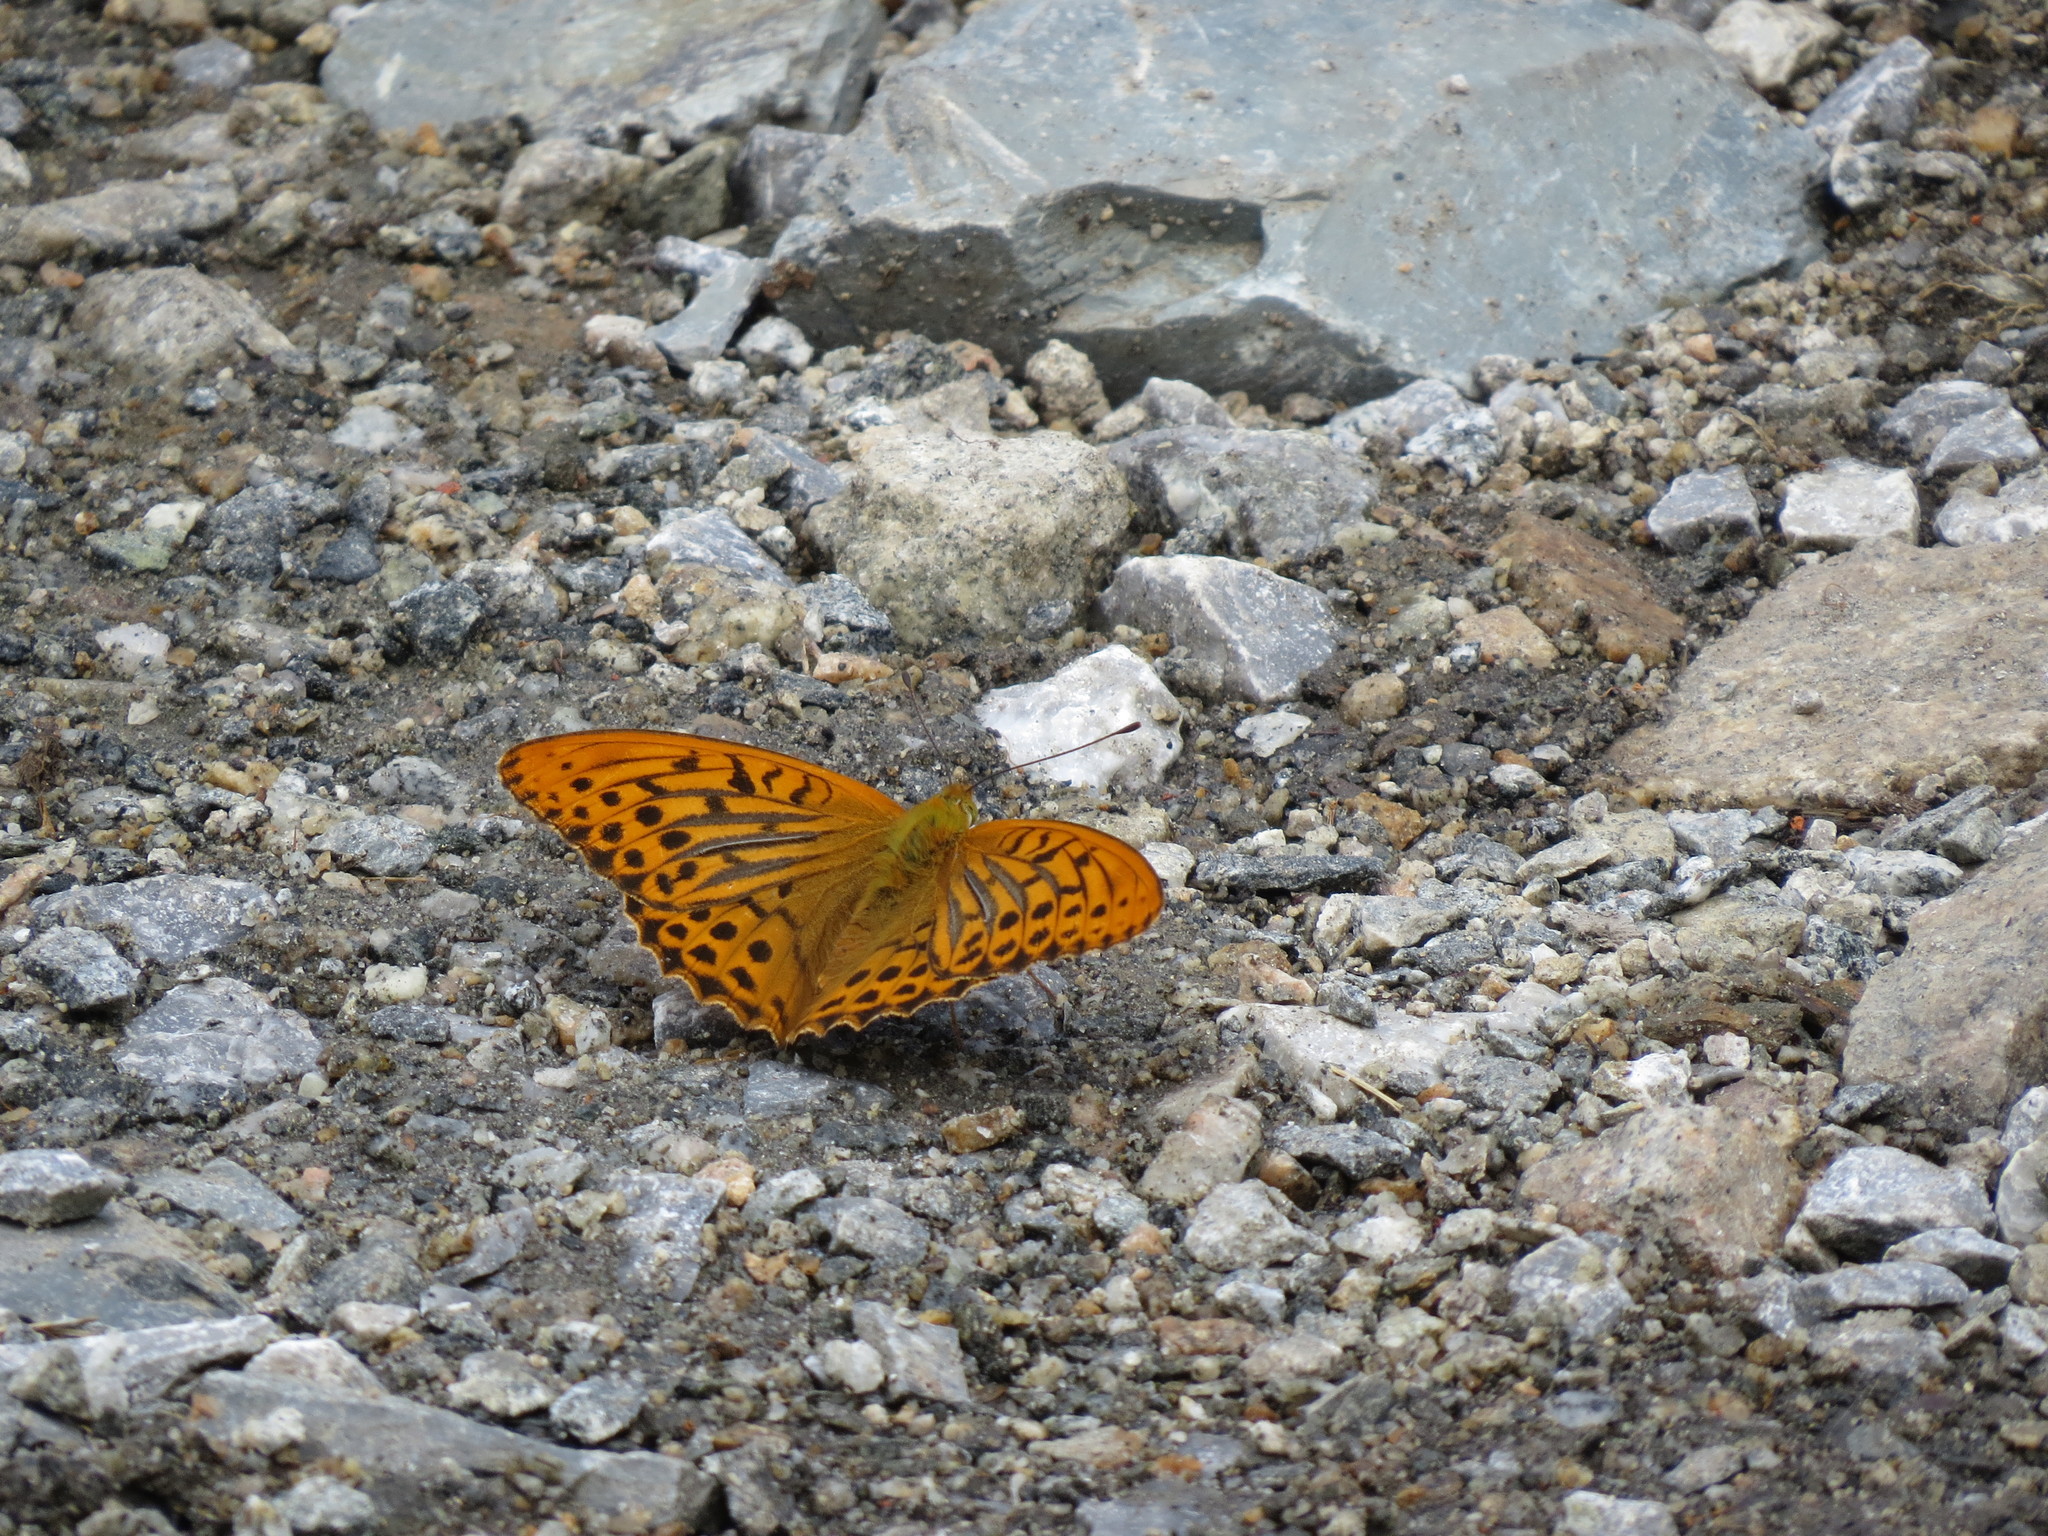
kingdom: Animalia
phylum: Arthropoda
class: Insecta
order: Lepidoptera
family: Nymphalidae
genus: Argynnis
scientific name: Argynnis paphia
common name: Silver-washed fritillary
